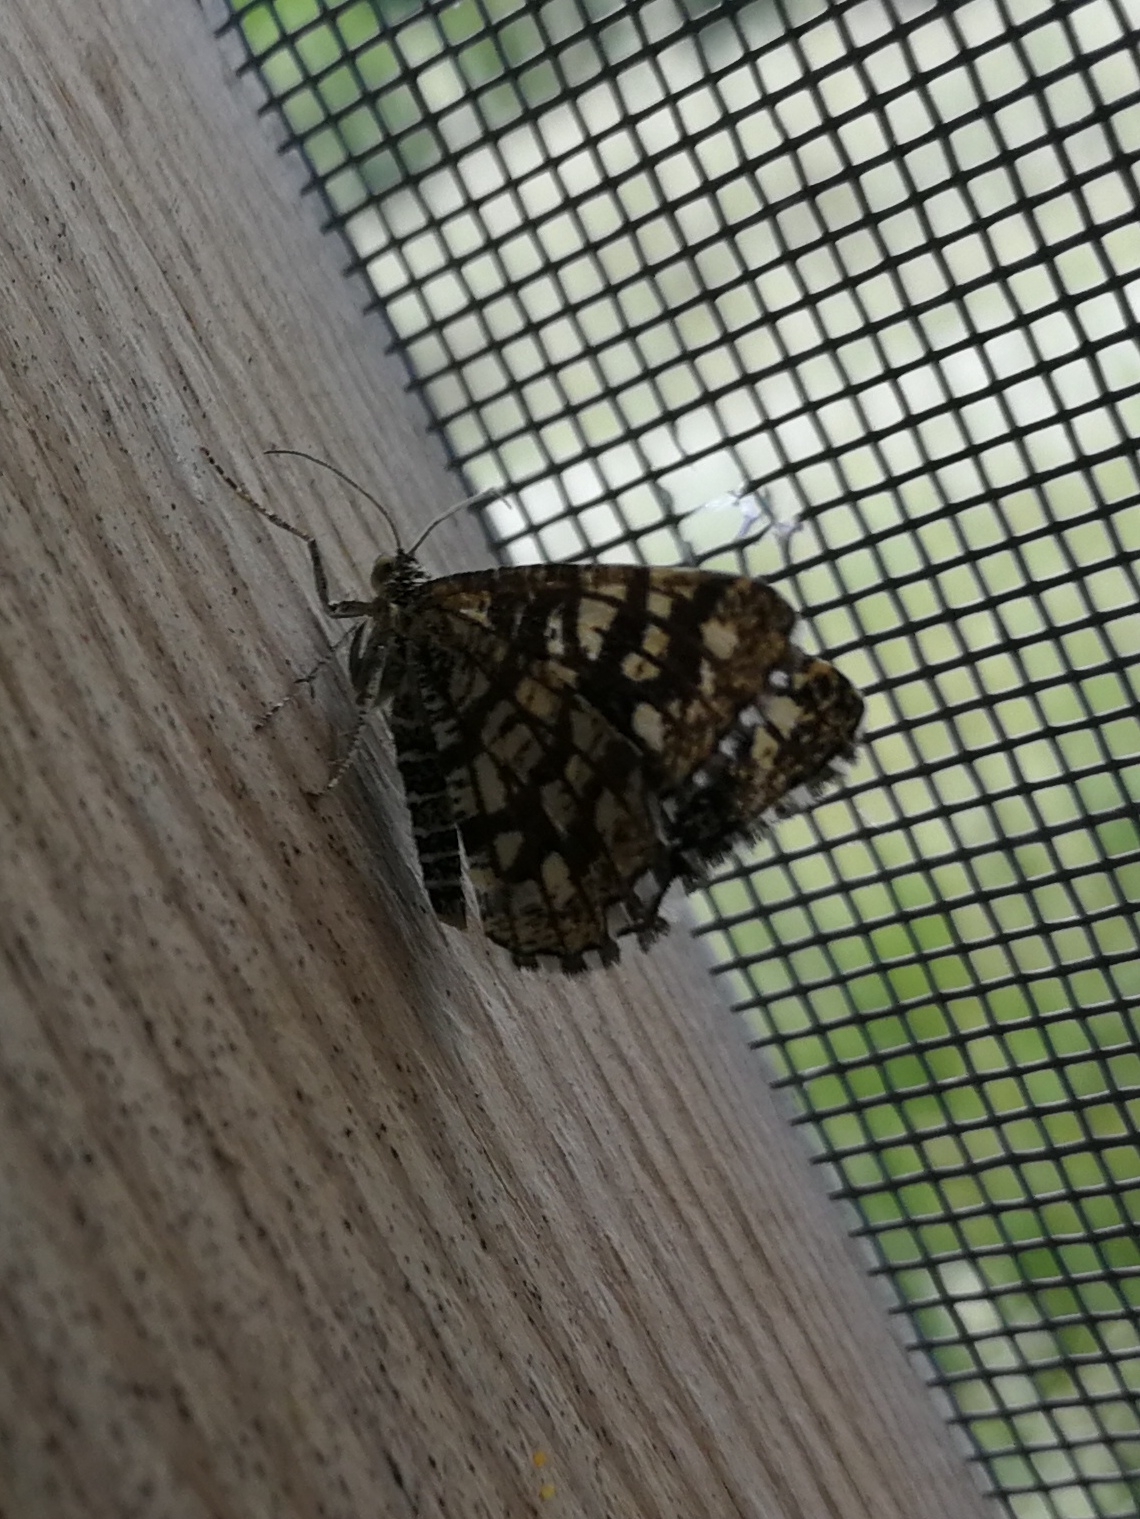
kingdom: Animalia
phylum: Arthropoda
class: Insecta
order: Lepidoptera
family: Geometridae
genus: Chiasmia
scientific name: Chiasmia clathrata
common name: Latticed heath
